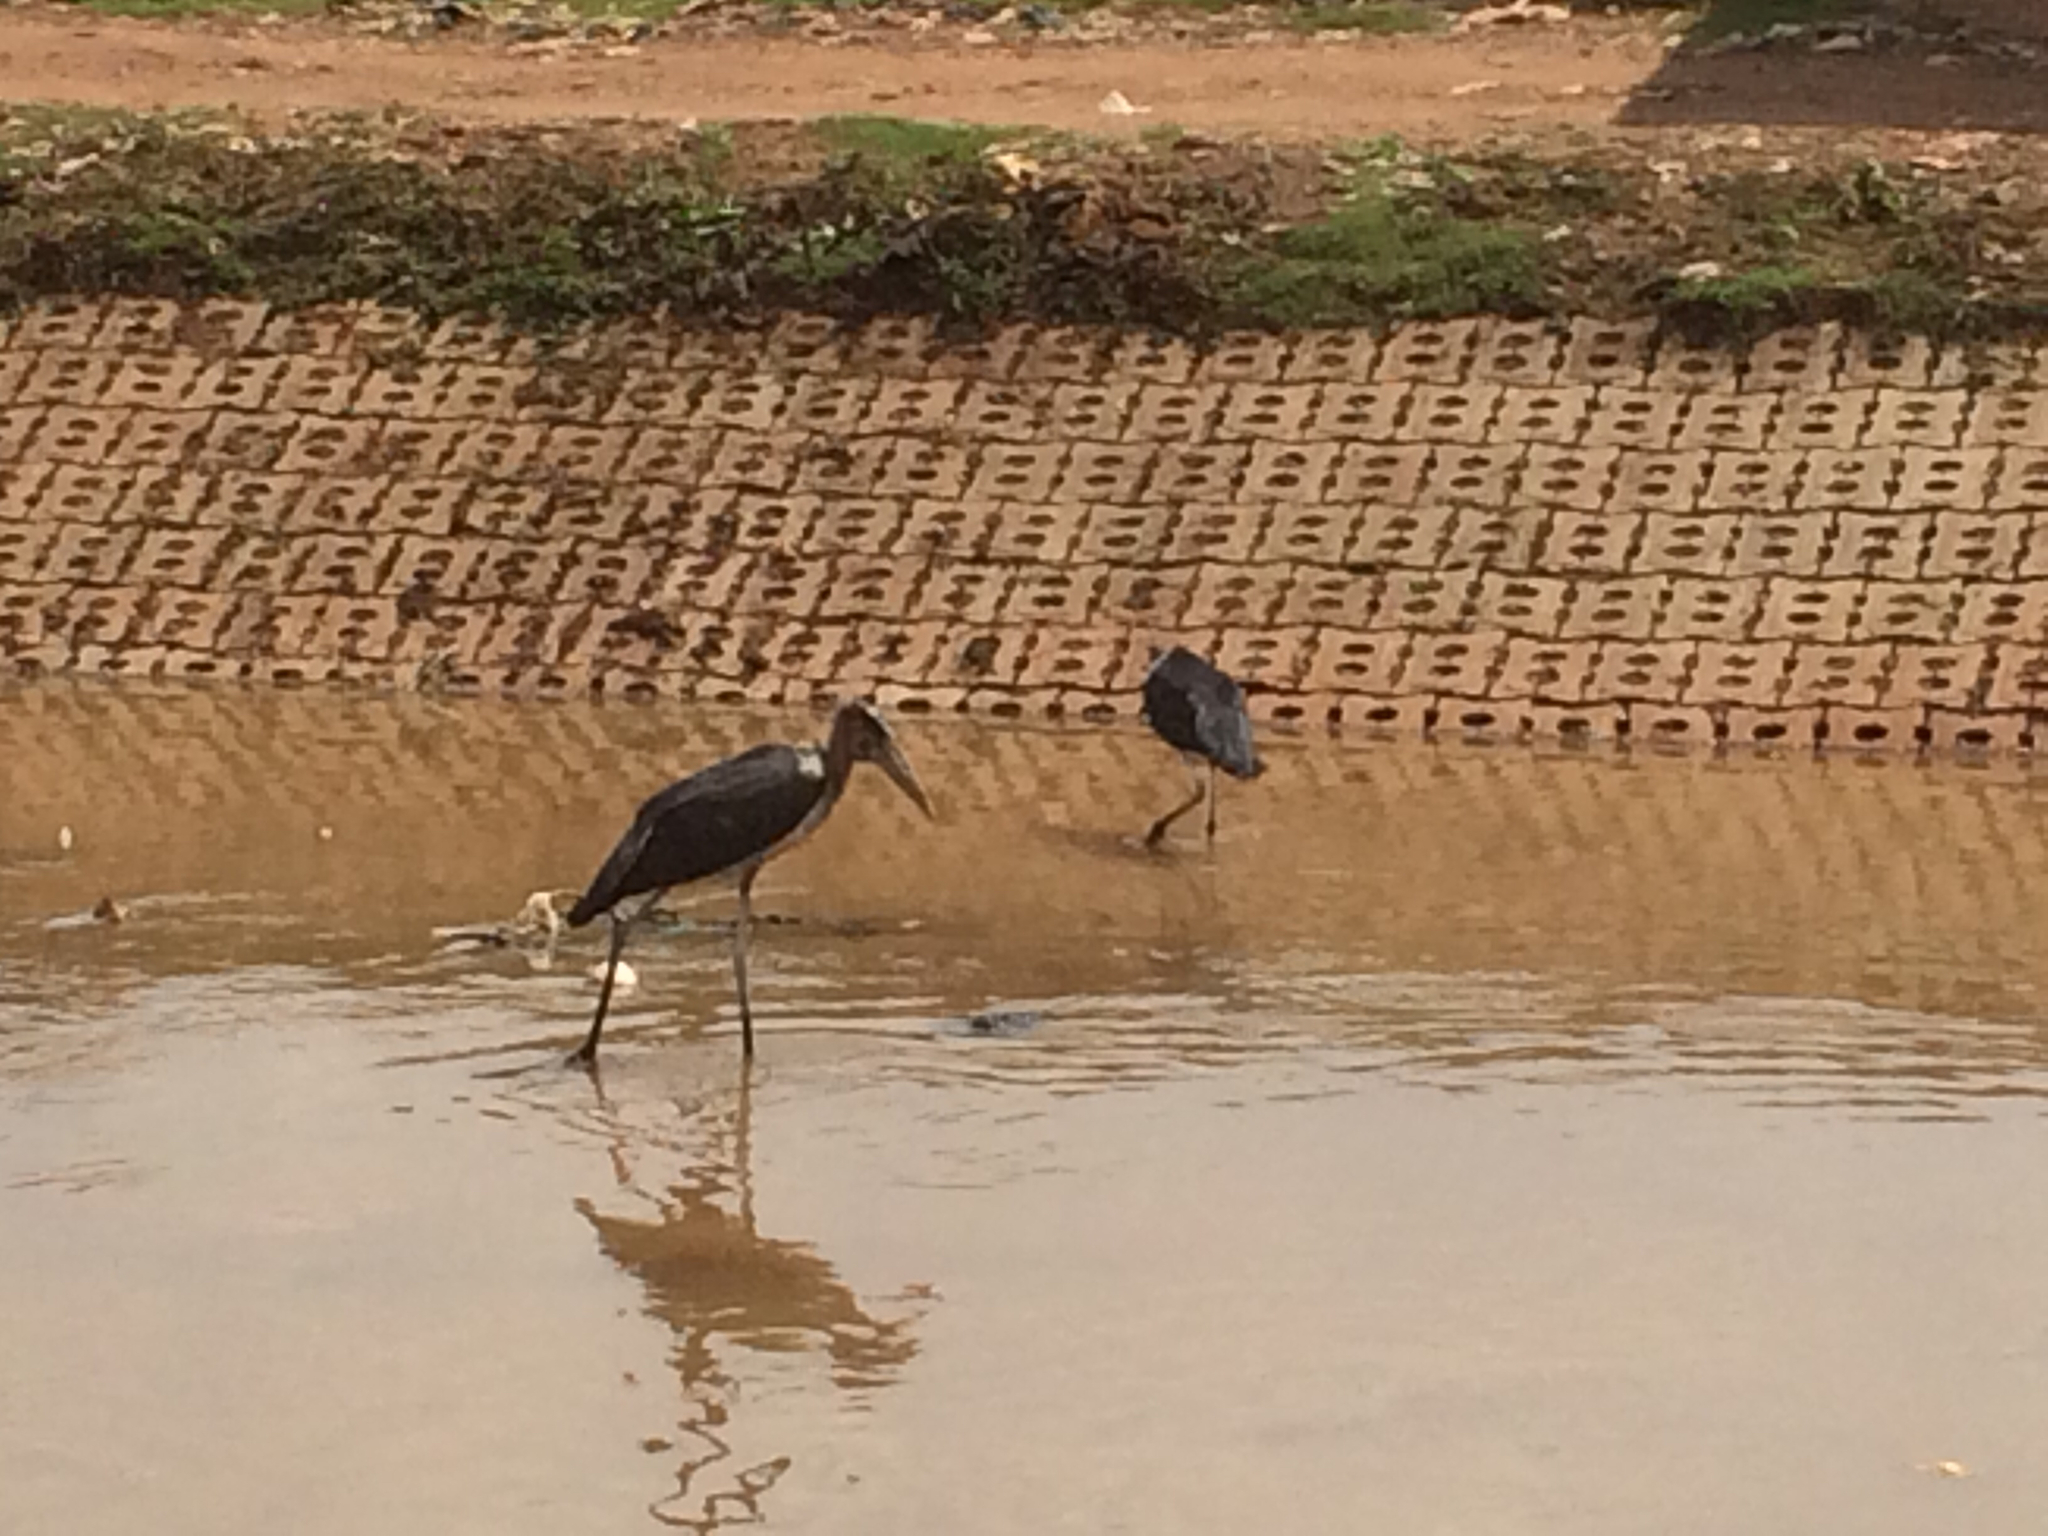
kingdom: Animalia
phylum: Chordata
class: Aves
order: Ciconiiformes
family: Ciconiidae
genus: Leptoptilos
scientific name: Leptoptilos crumenifer
